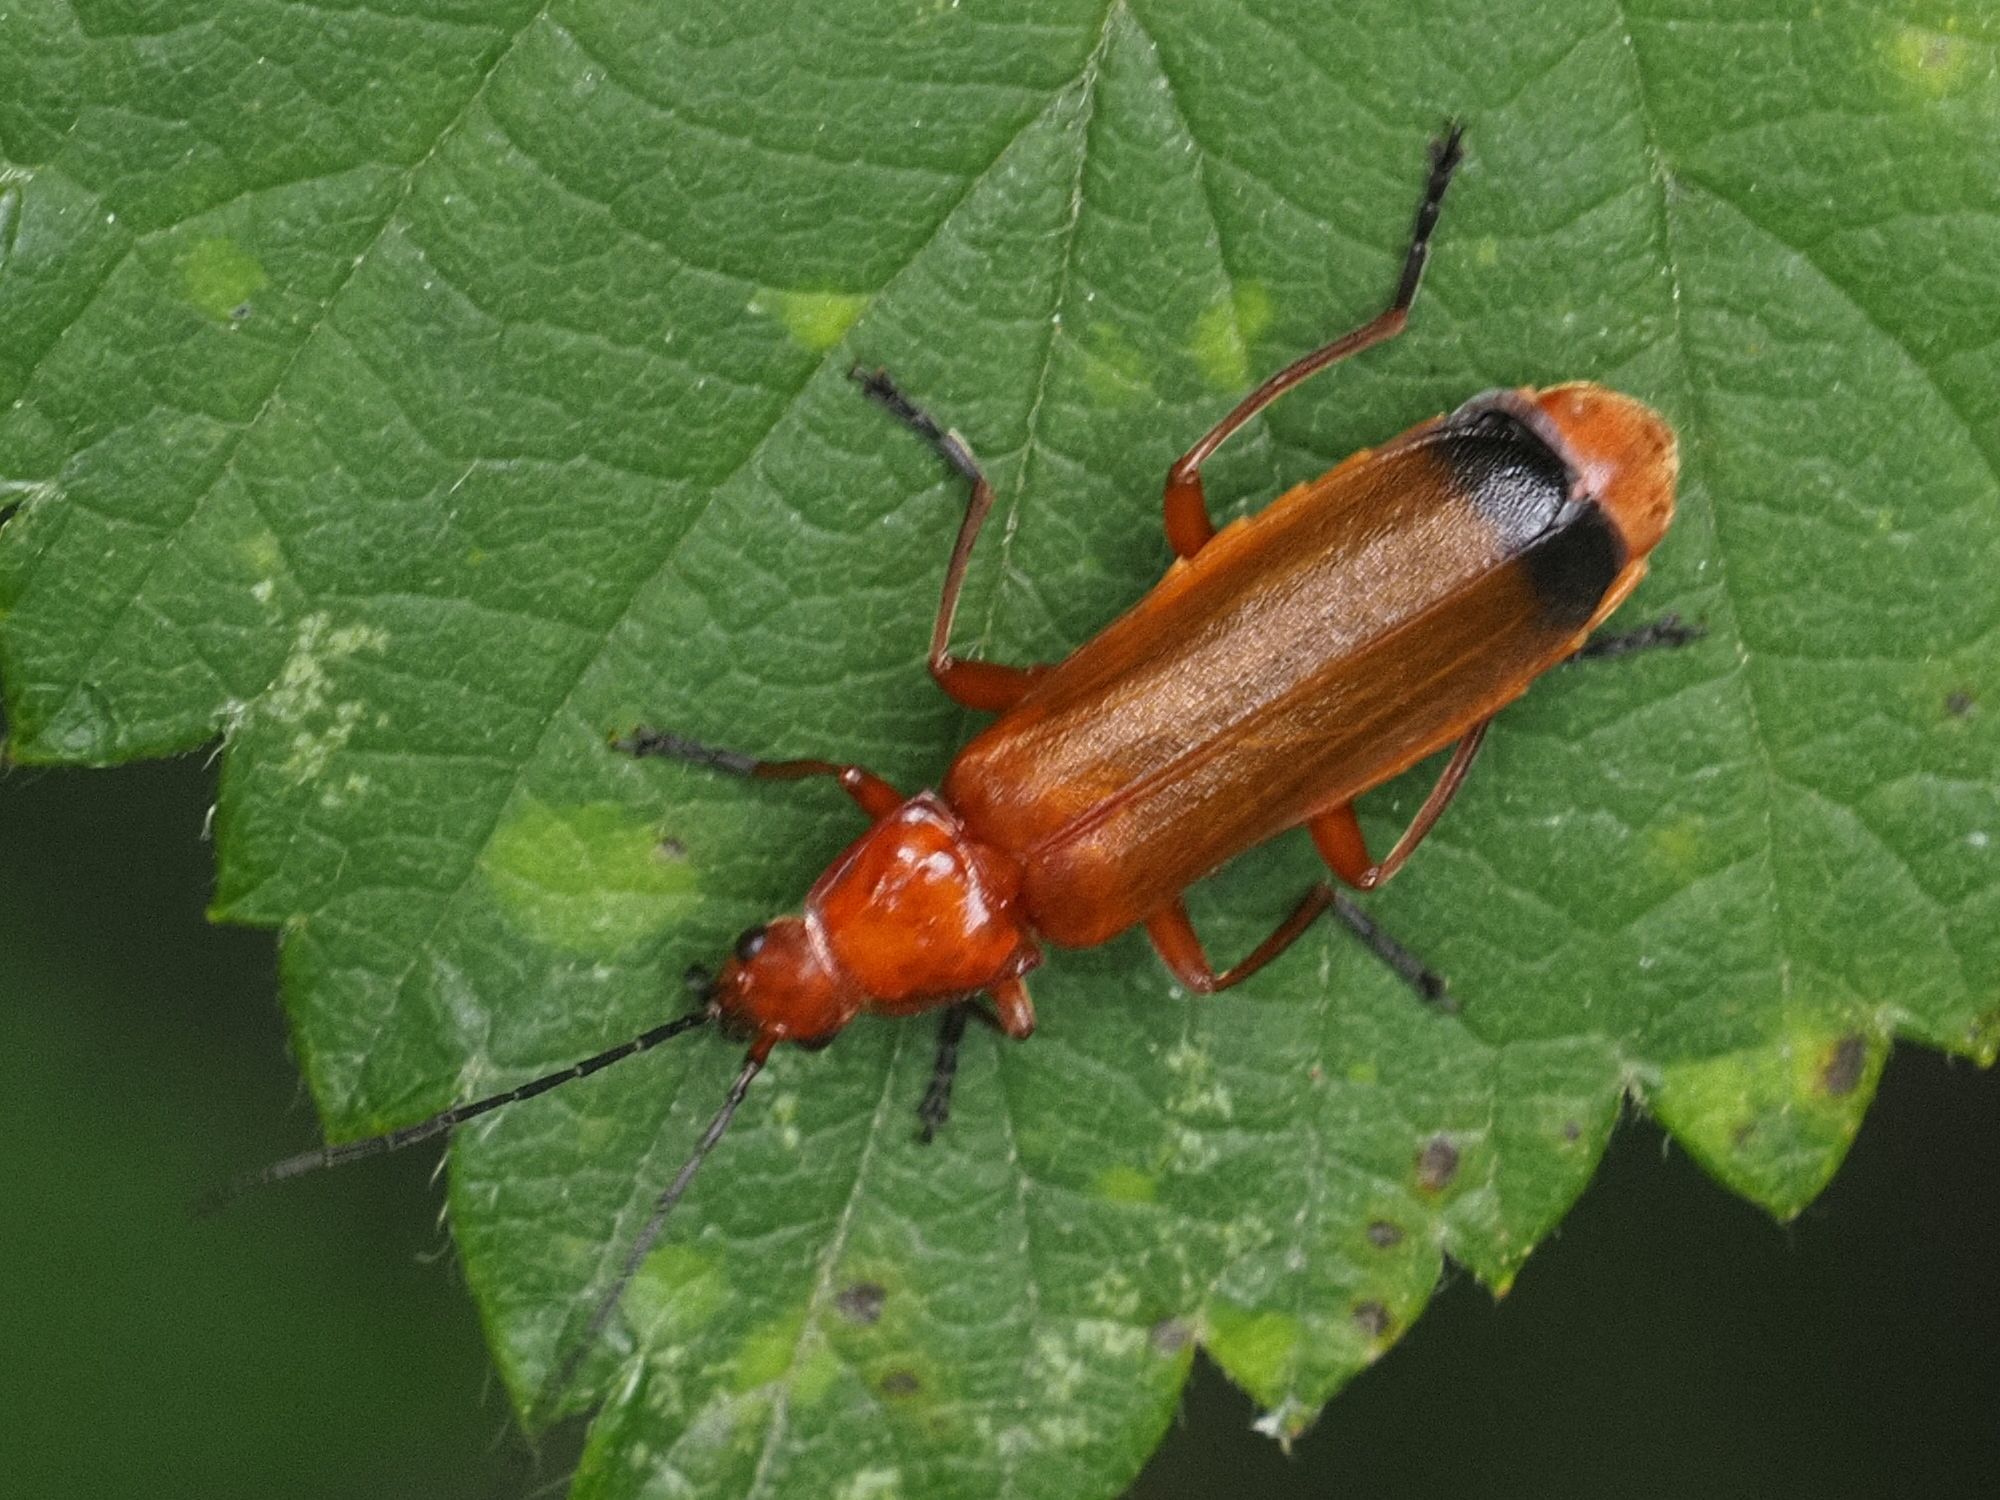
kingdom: Animalia
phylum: Arthropoda
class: Insecta
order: Coleoptera
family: Cantharidae
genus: Rhagonycha
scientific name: Rhagonycha fulva
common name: Common red soldier beetle
